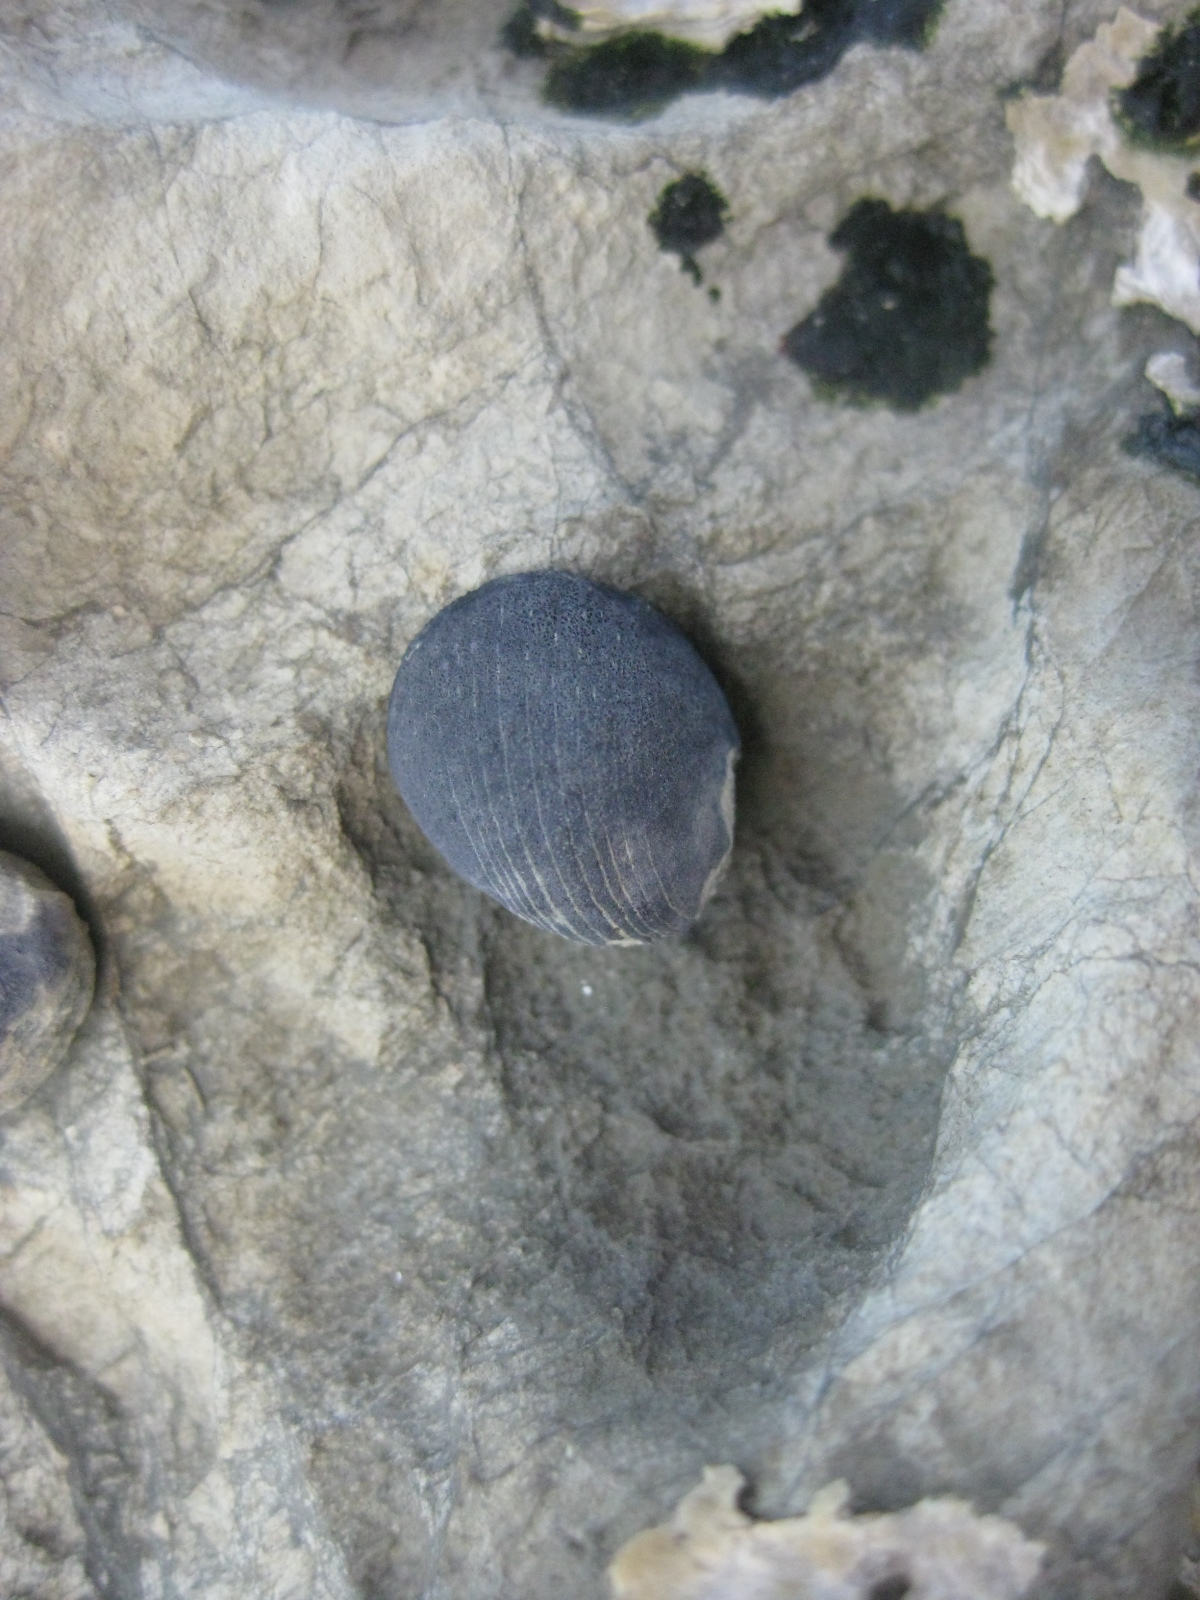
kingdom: Animalia
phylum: Mollusca
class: Gastropoda
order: Cycloneritida
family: Neritidae
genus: Nerita
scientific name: Nerita melanotragus
